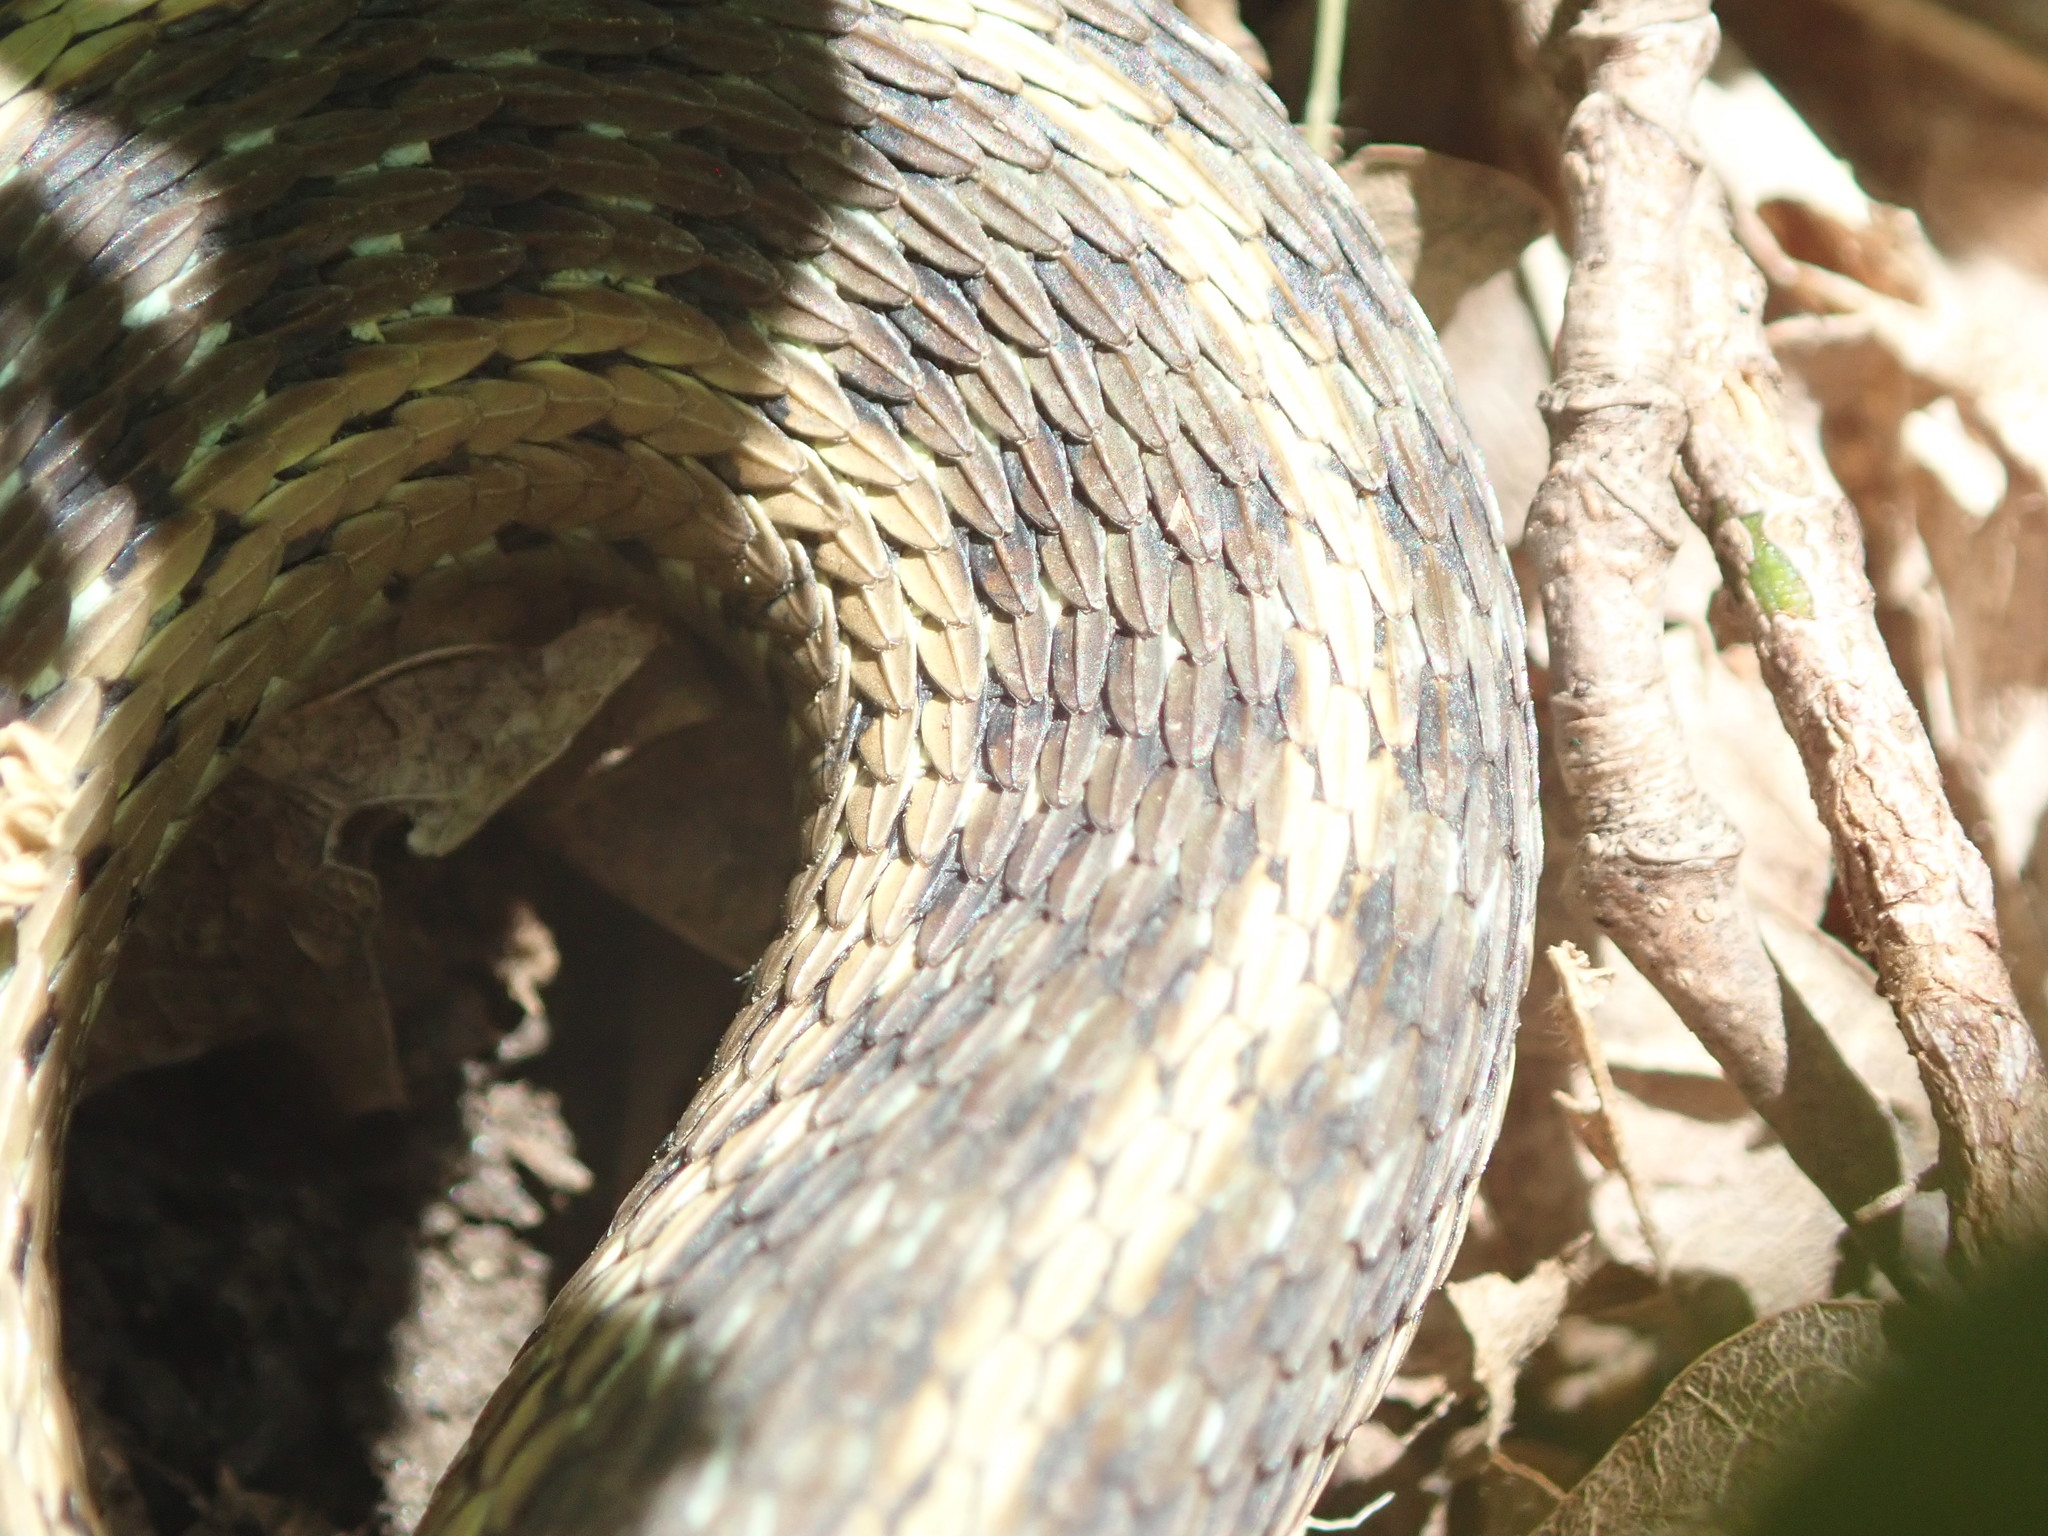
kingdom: Animalia
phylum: Chordata
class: Squamata
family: Colubridae
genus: Thamnophis
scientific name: Thamnophis sirtalis
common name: Common garter snake
